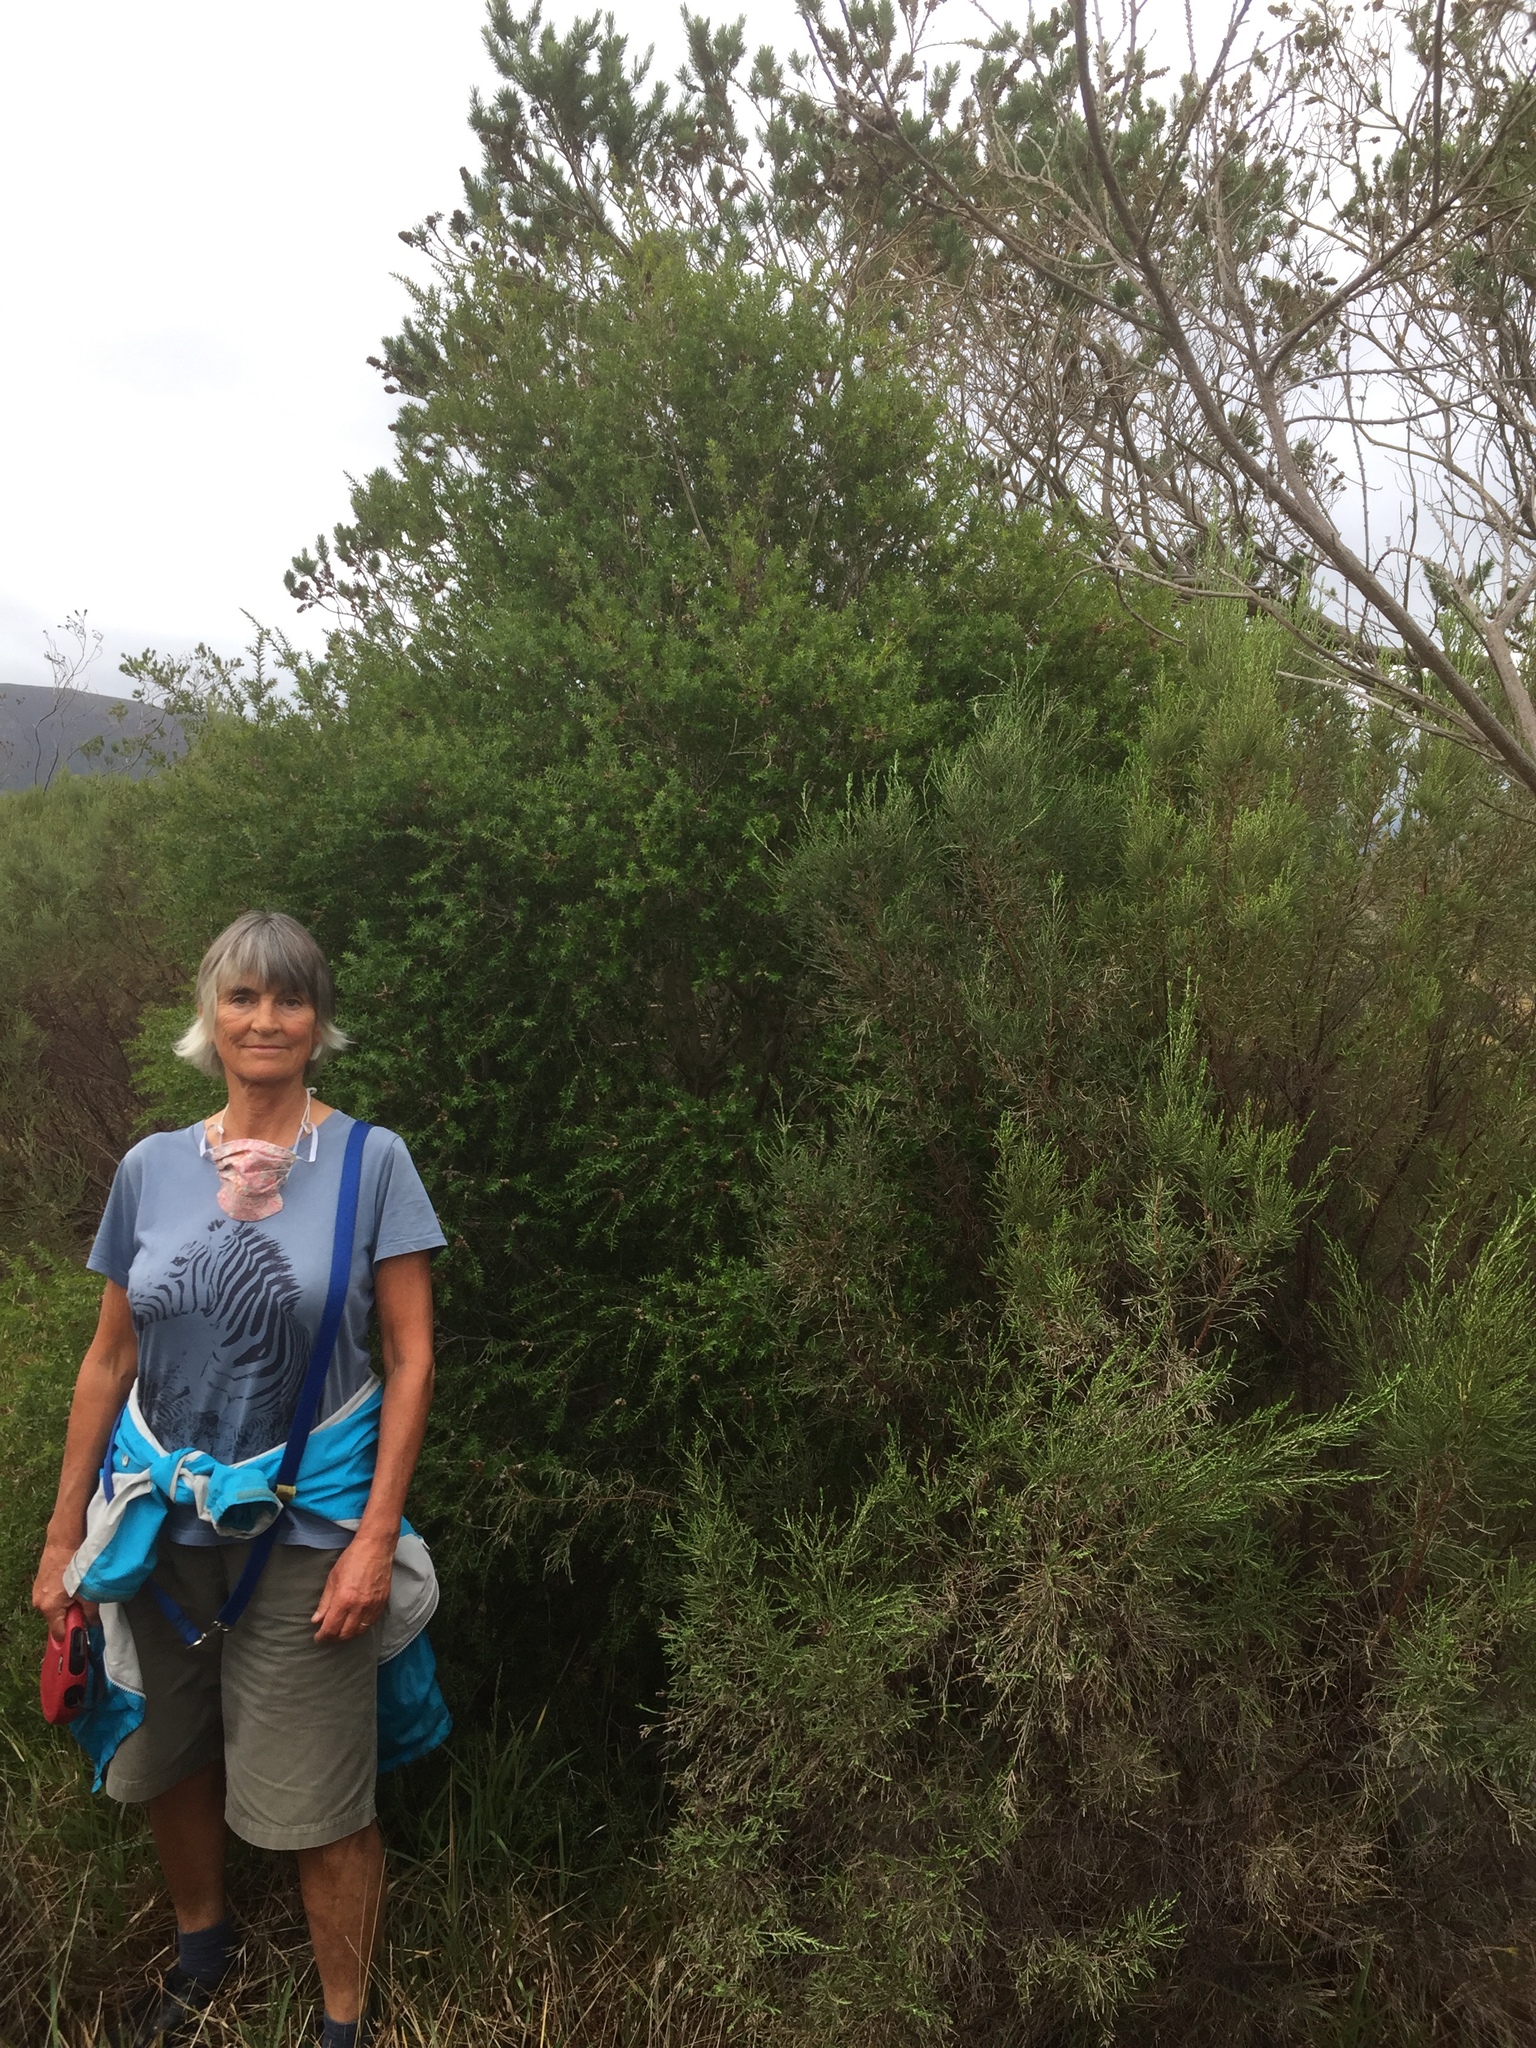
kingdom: Plantae
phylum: Tracheophyta
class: Magnoliopsida
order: Myrtales
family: Myrtaceae
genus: Melaleuca
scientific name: Melaleuca styphelioides
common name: Prickly paperbark
